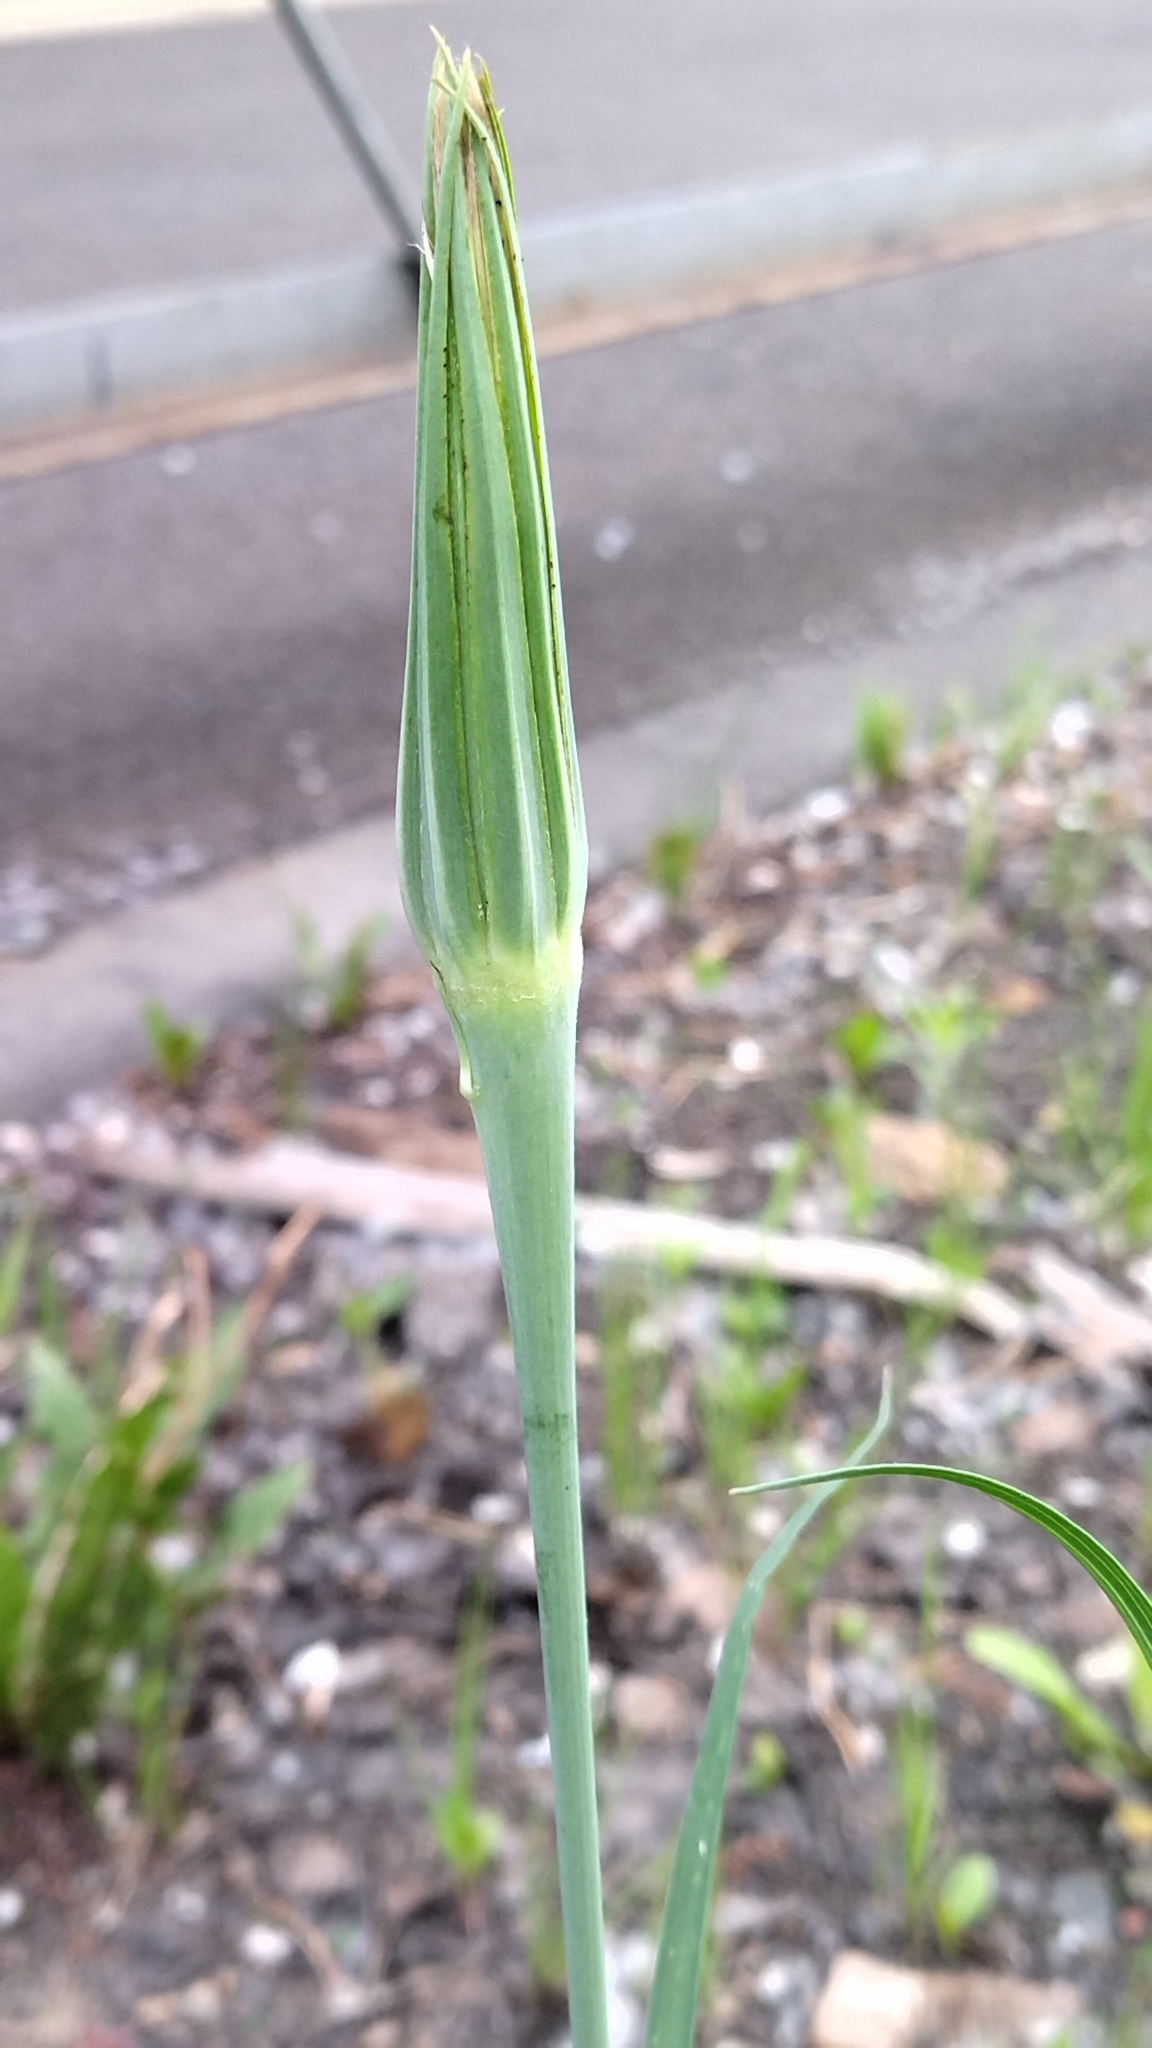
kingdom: Plantae
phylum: Tracheophyta
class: Magnoliopsida
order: Asterales
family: Asteraceae
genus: Tragopogon
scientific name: Tragopogon dubius
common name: Yellow salsify
